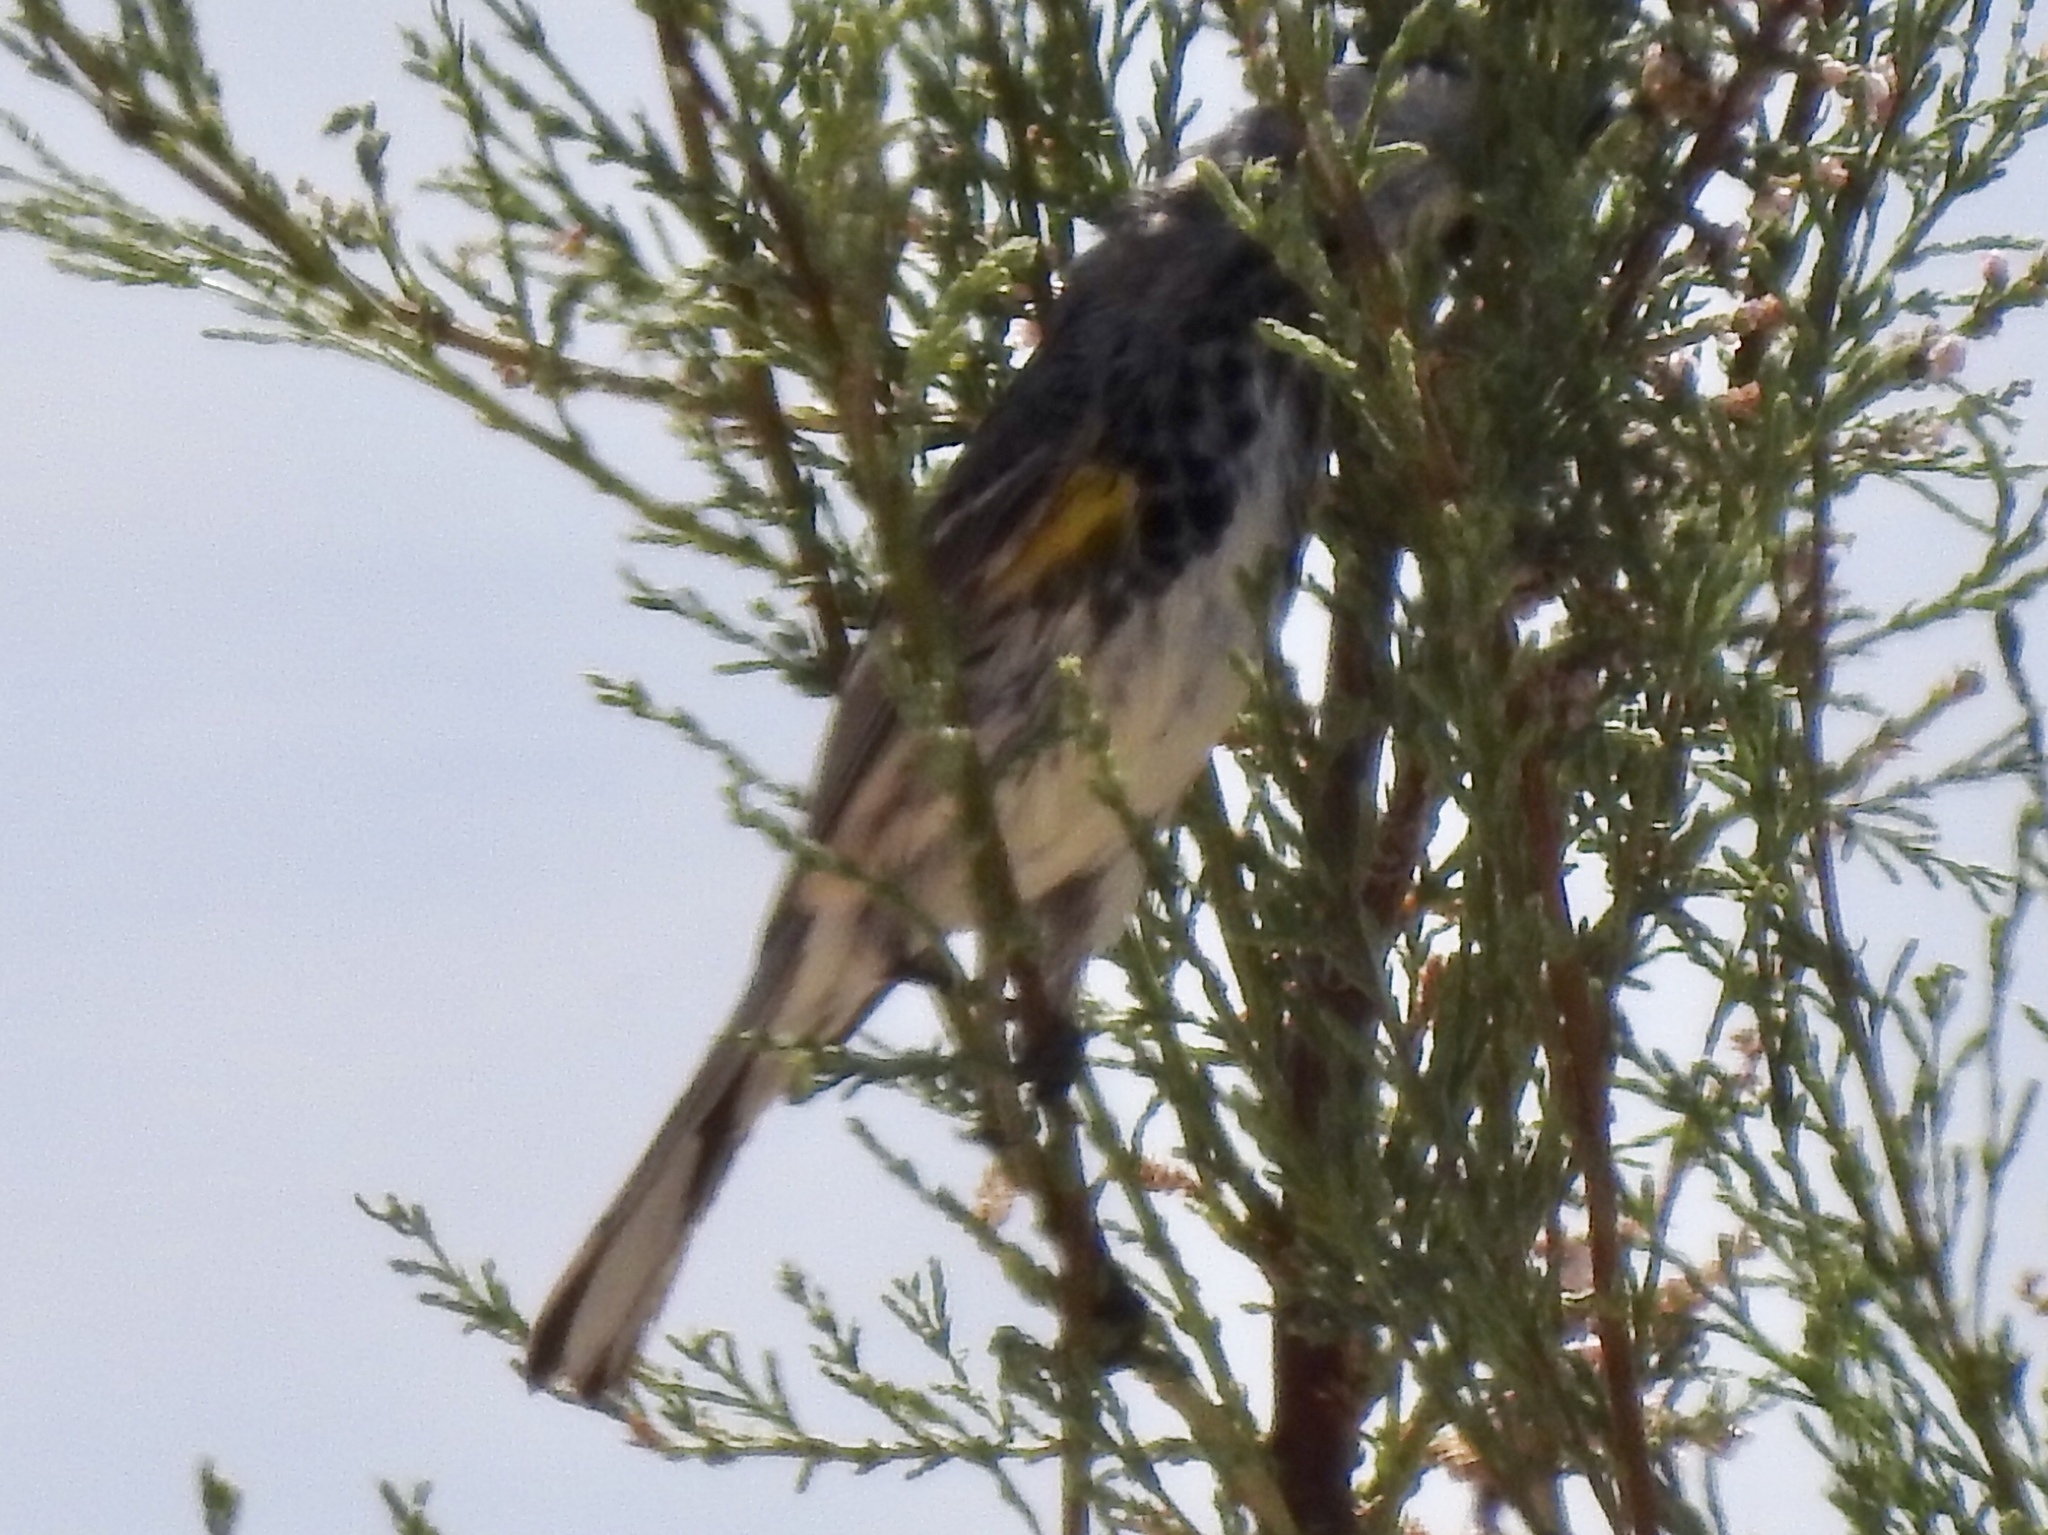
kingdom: Animalia
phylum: Chordata
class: Aves
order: Passeriformes
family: Parulidae
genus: Setophaga
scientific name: Setophaga coronata
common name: Myrtle warbler
